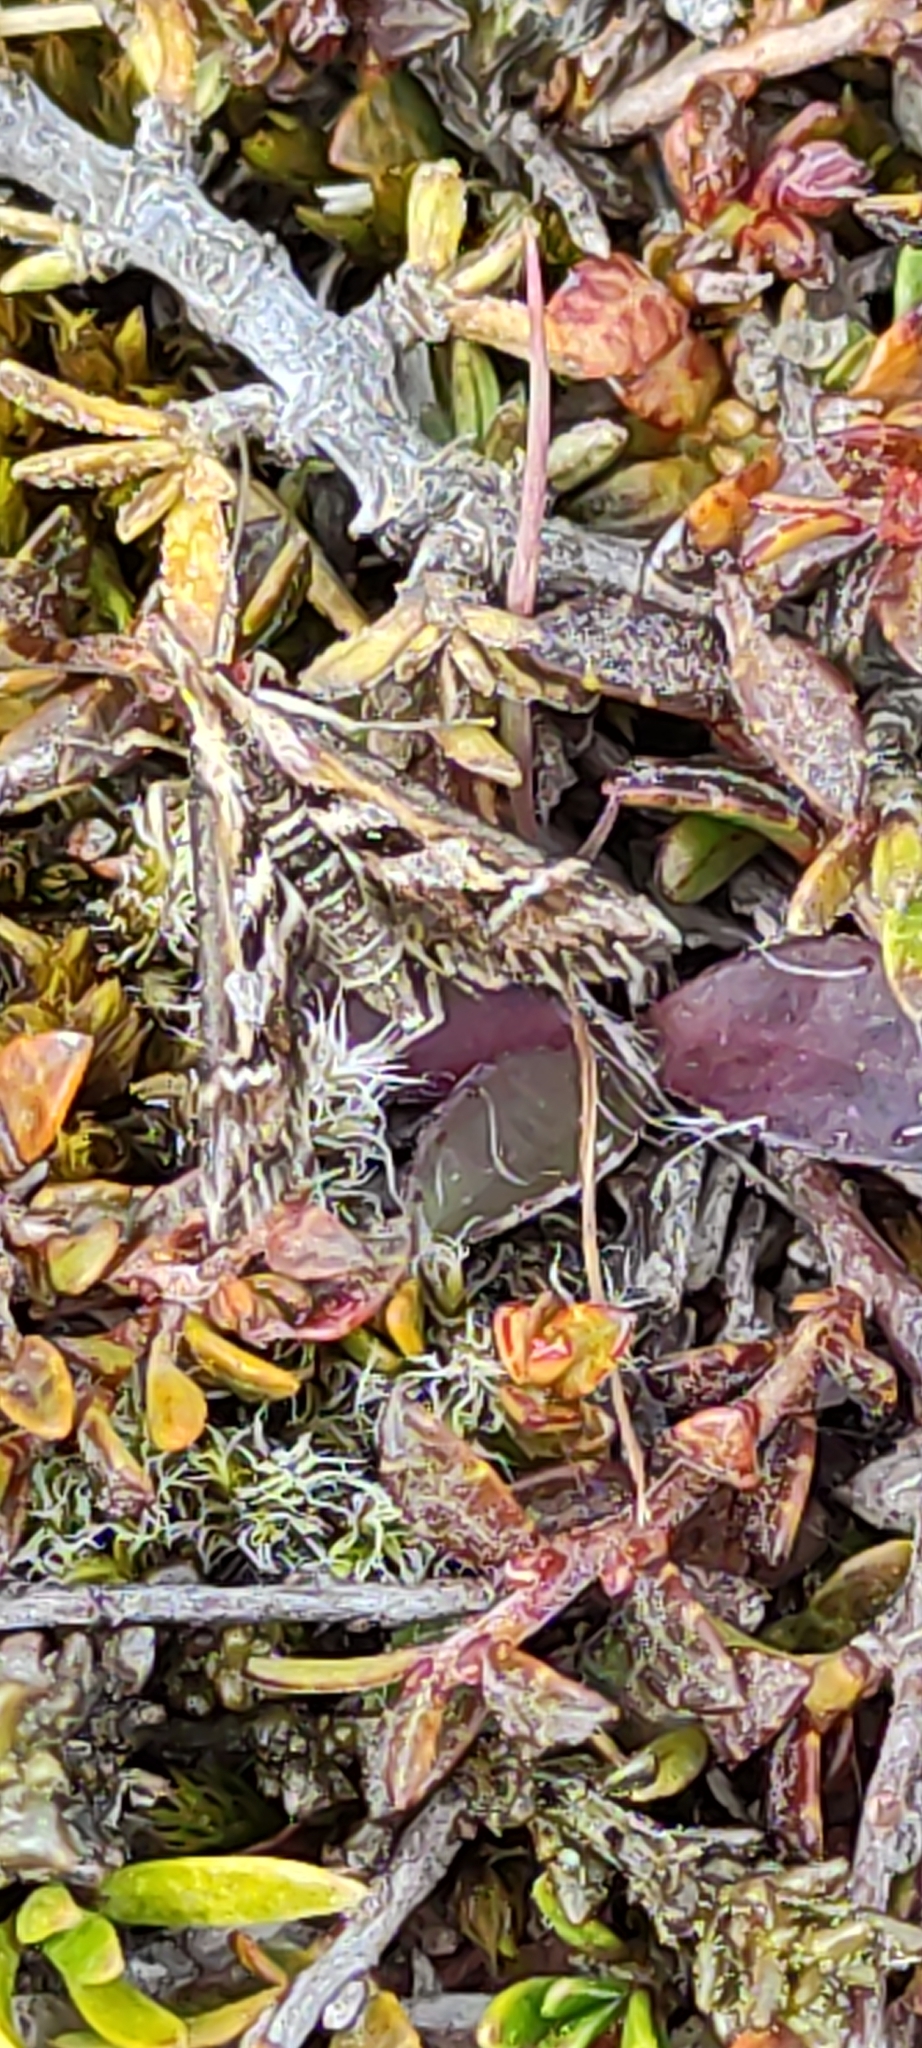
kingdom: Animalia
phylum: Arthropoda
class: Insecta
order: Lepidoptera
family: Crambidae
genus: Diasemia
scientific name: Diasemia grammalis
